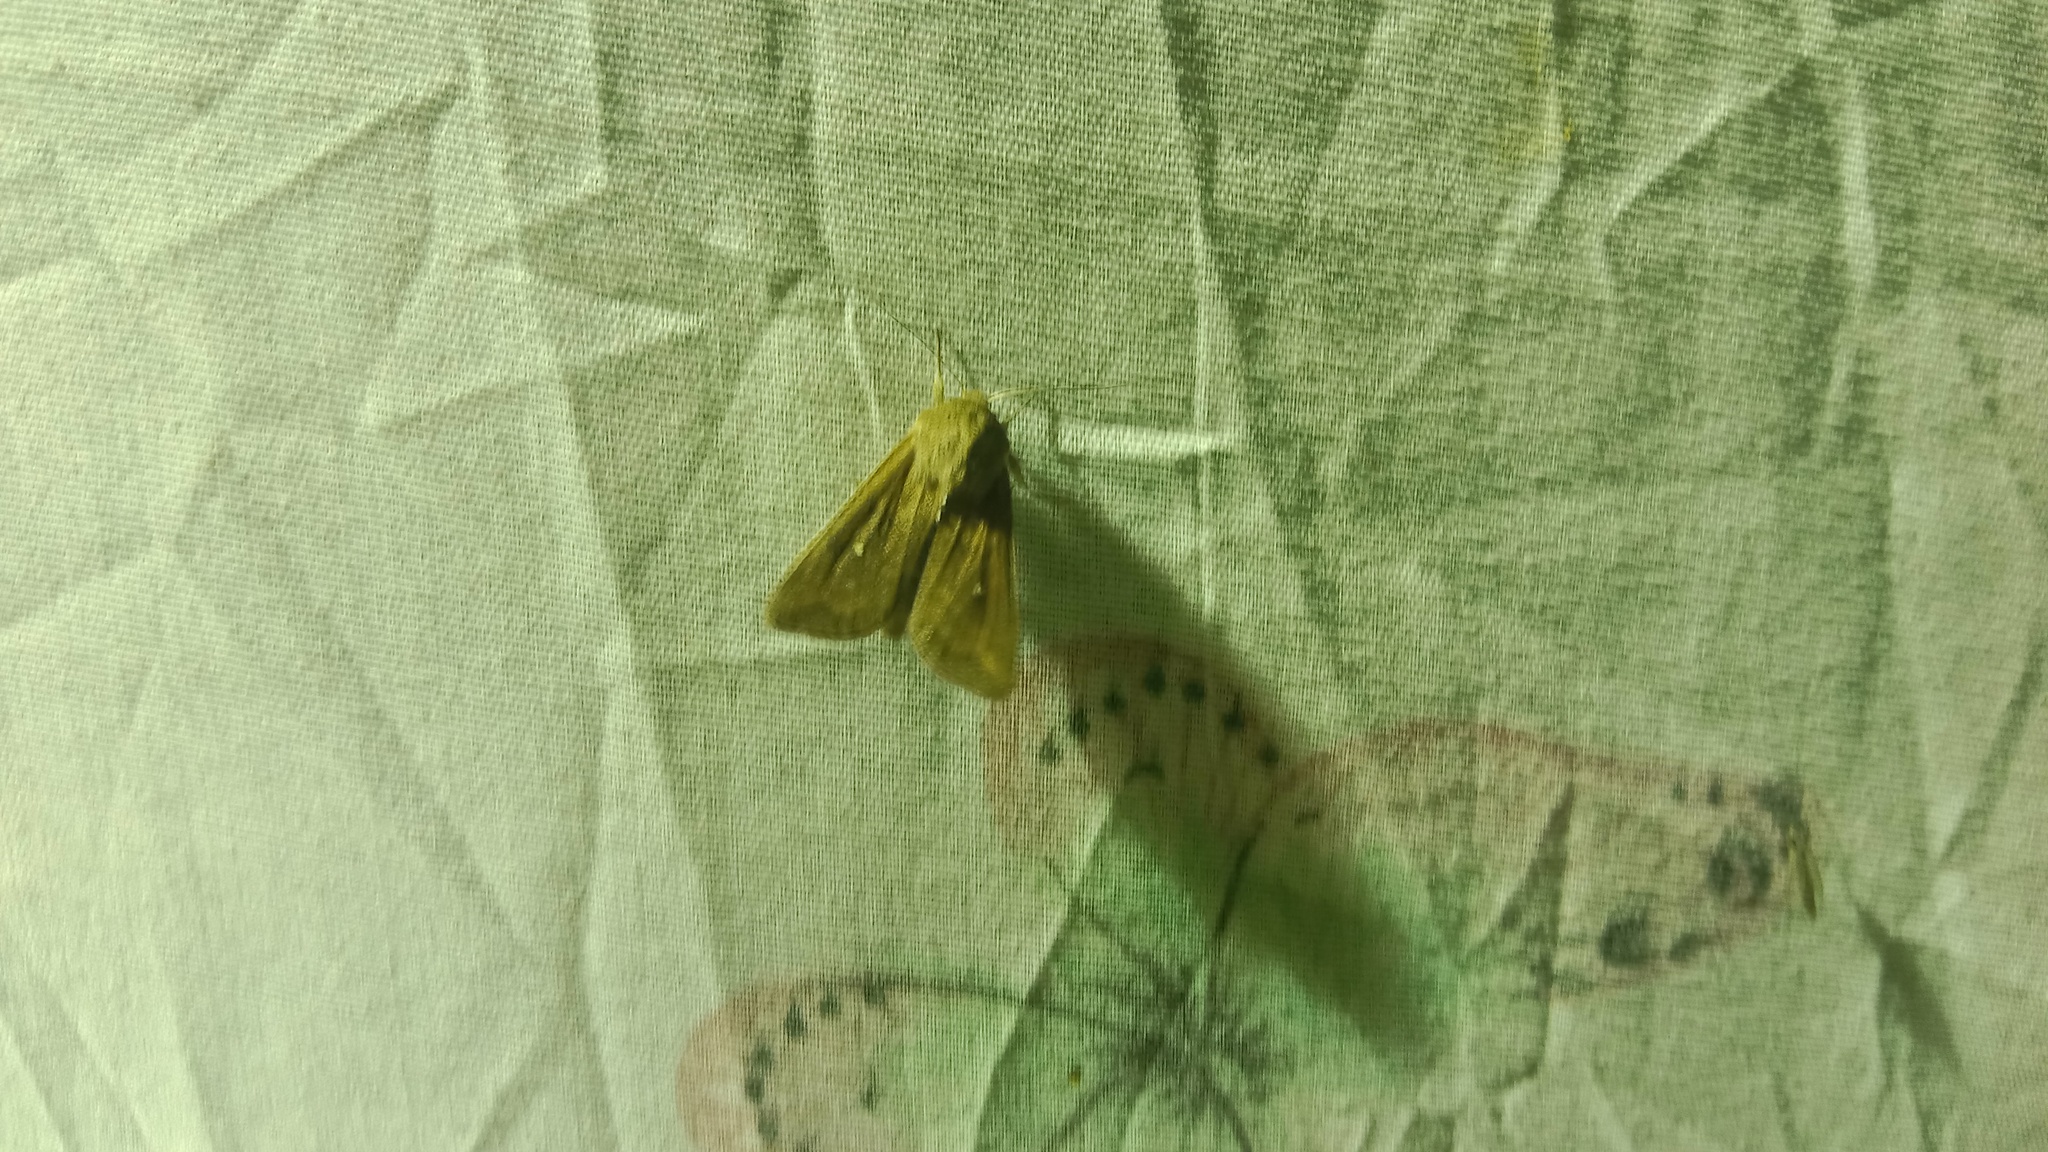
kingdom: Animalia
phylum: Arthropoda
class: Insecta
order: Lepidoptera
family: Noctuidae
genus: Mythimna
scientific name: Mythimna albipuncta
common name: White-point
